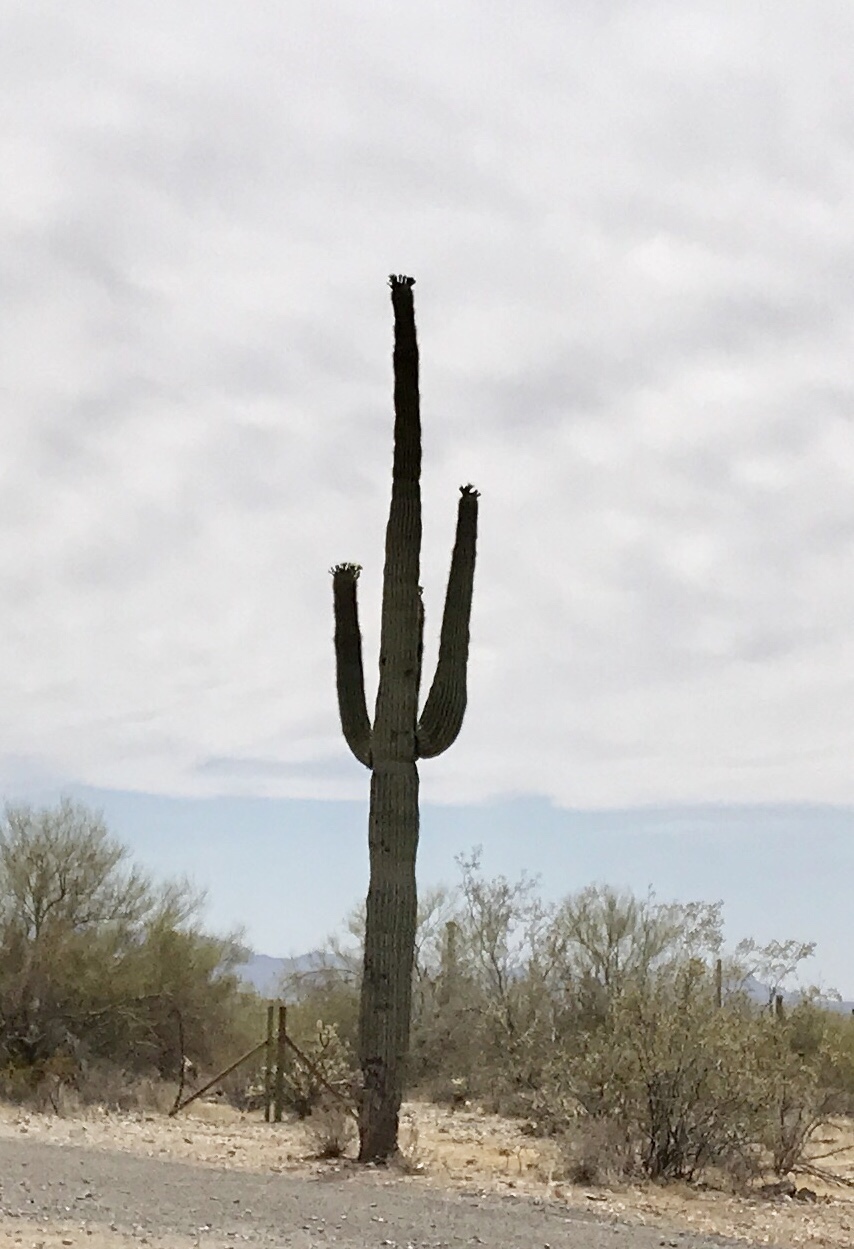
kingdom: Plantae
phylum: Tracheophyta
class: Magnoliopsida
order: Caryophyllales
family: Cactaceae
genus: Carnegiea
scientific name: Carnegiea gigantea
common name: Saguaro
